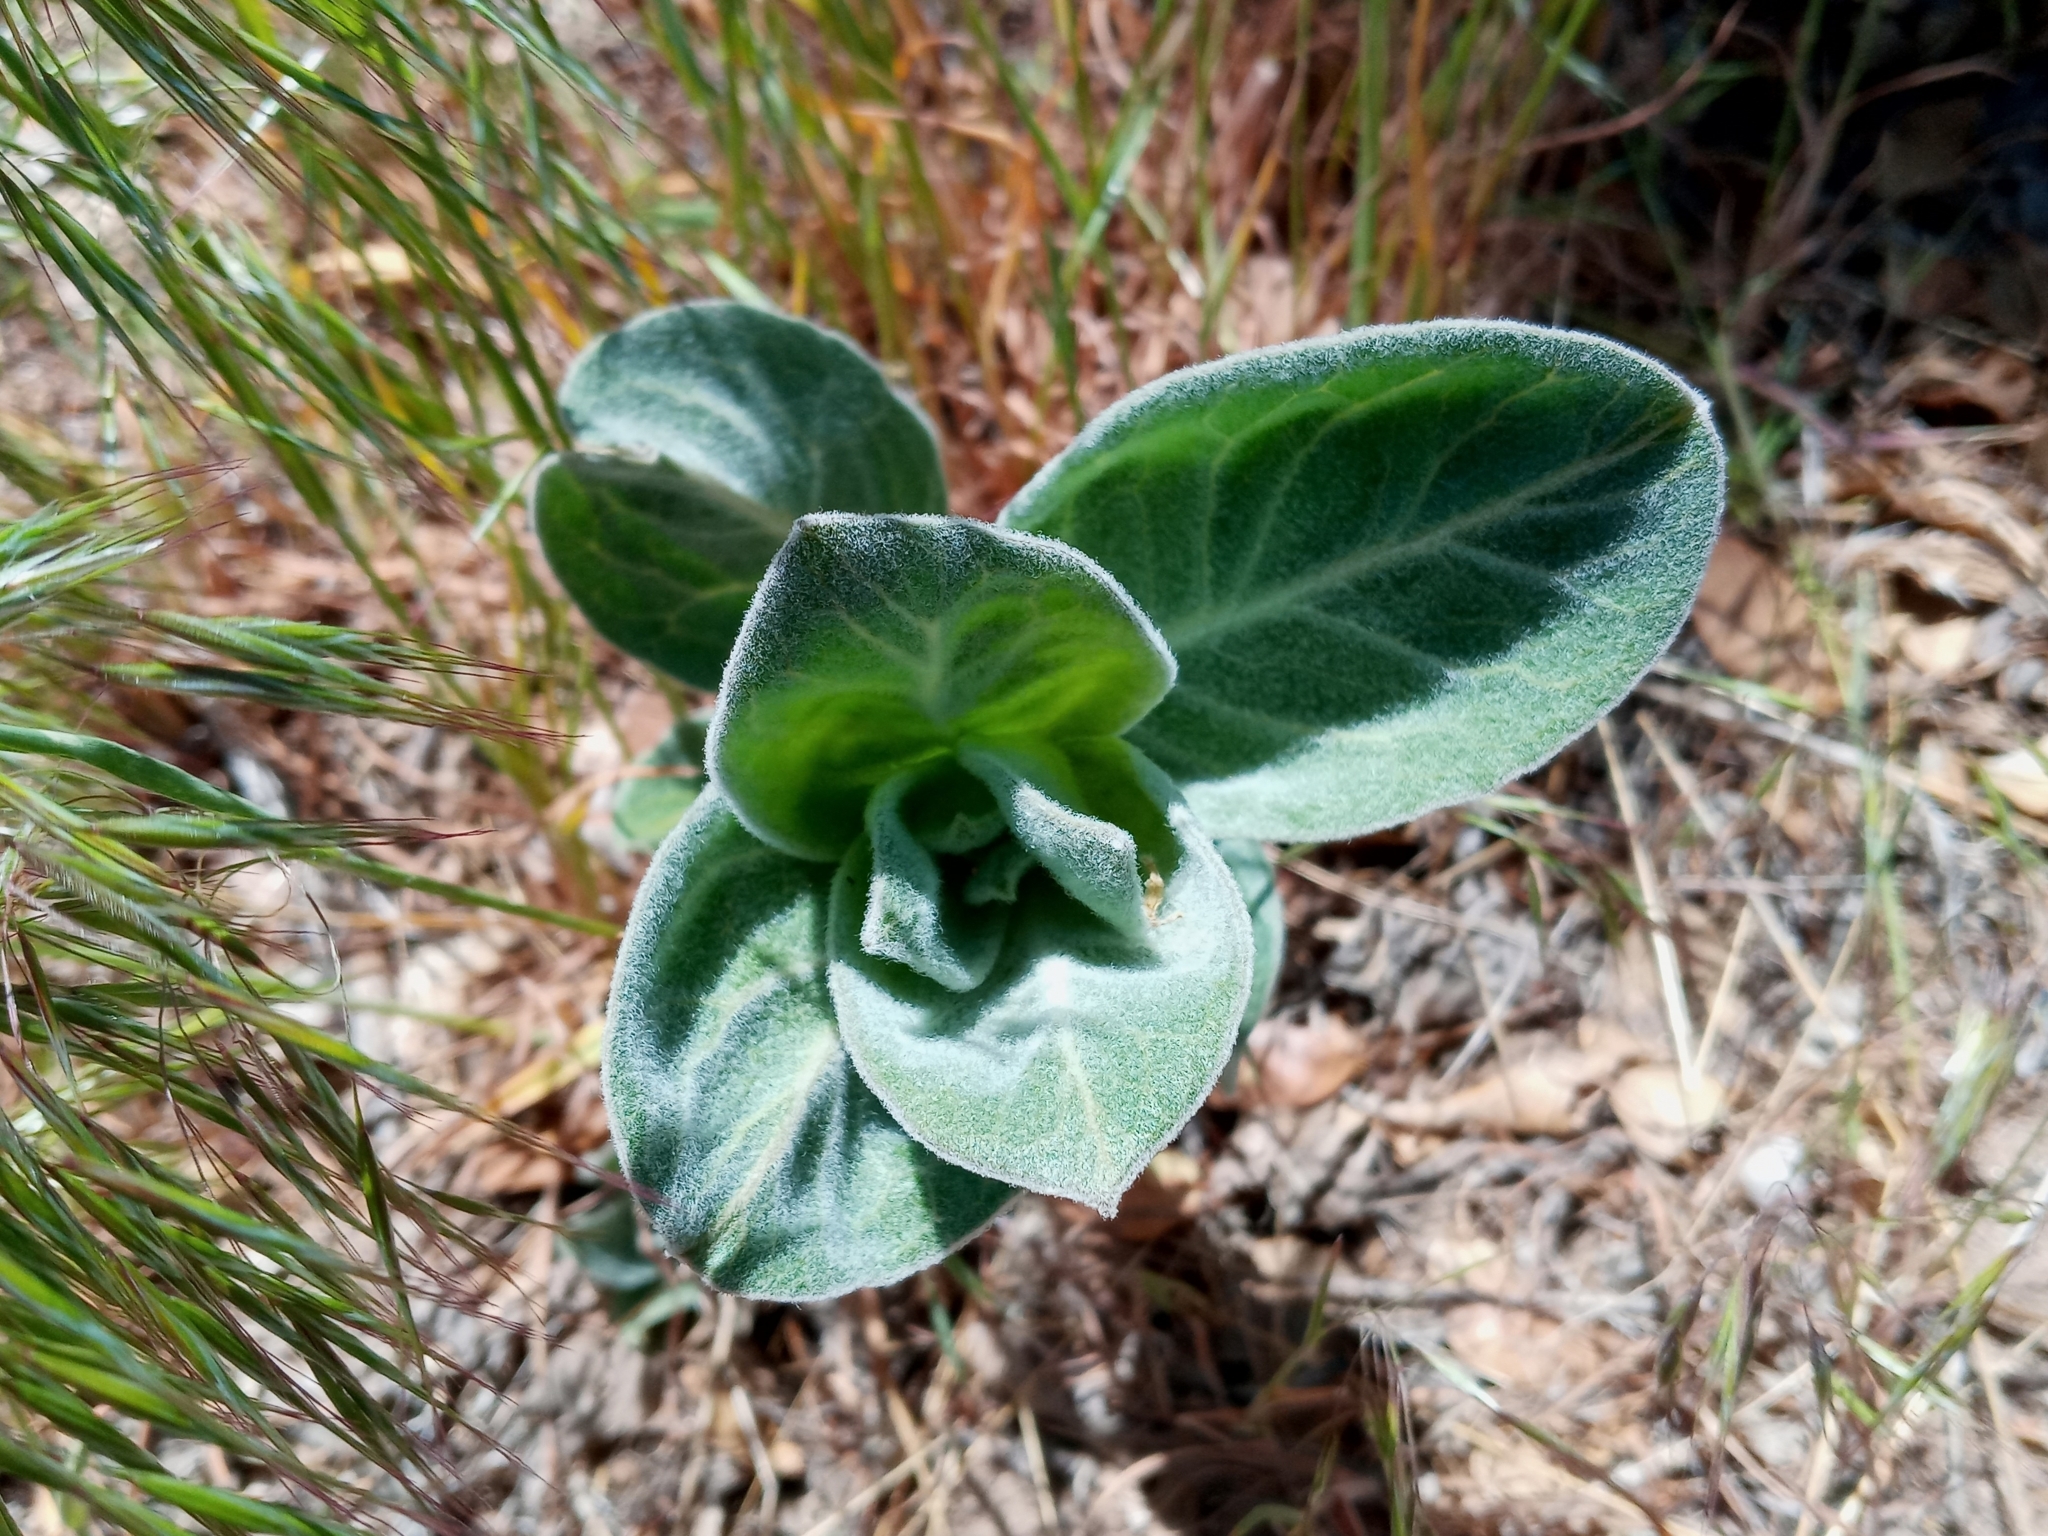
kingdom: Plantae
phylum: Tracheophyta
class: Magnoliopsida
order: Gentianales
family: Apocynaceae
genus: Asclepias
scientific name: Asclepias eriocarpa
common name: Indian milkweed
